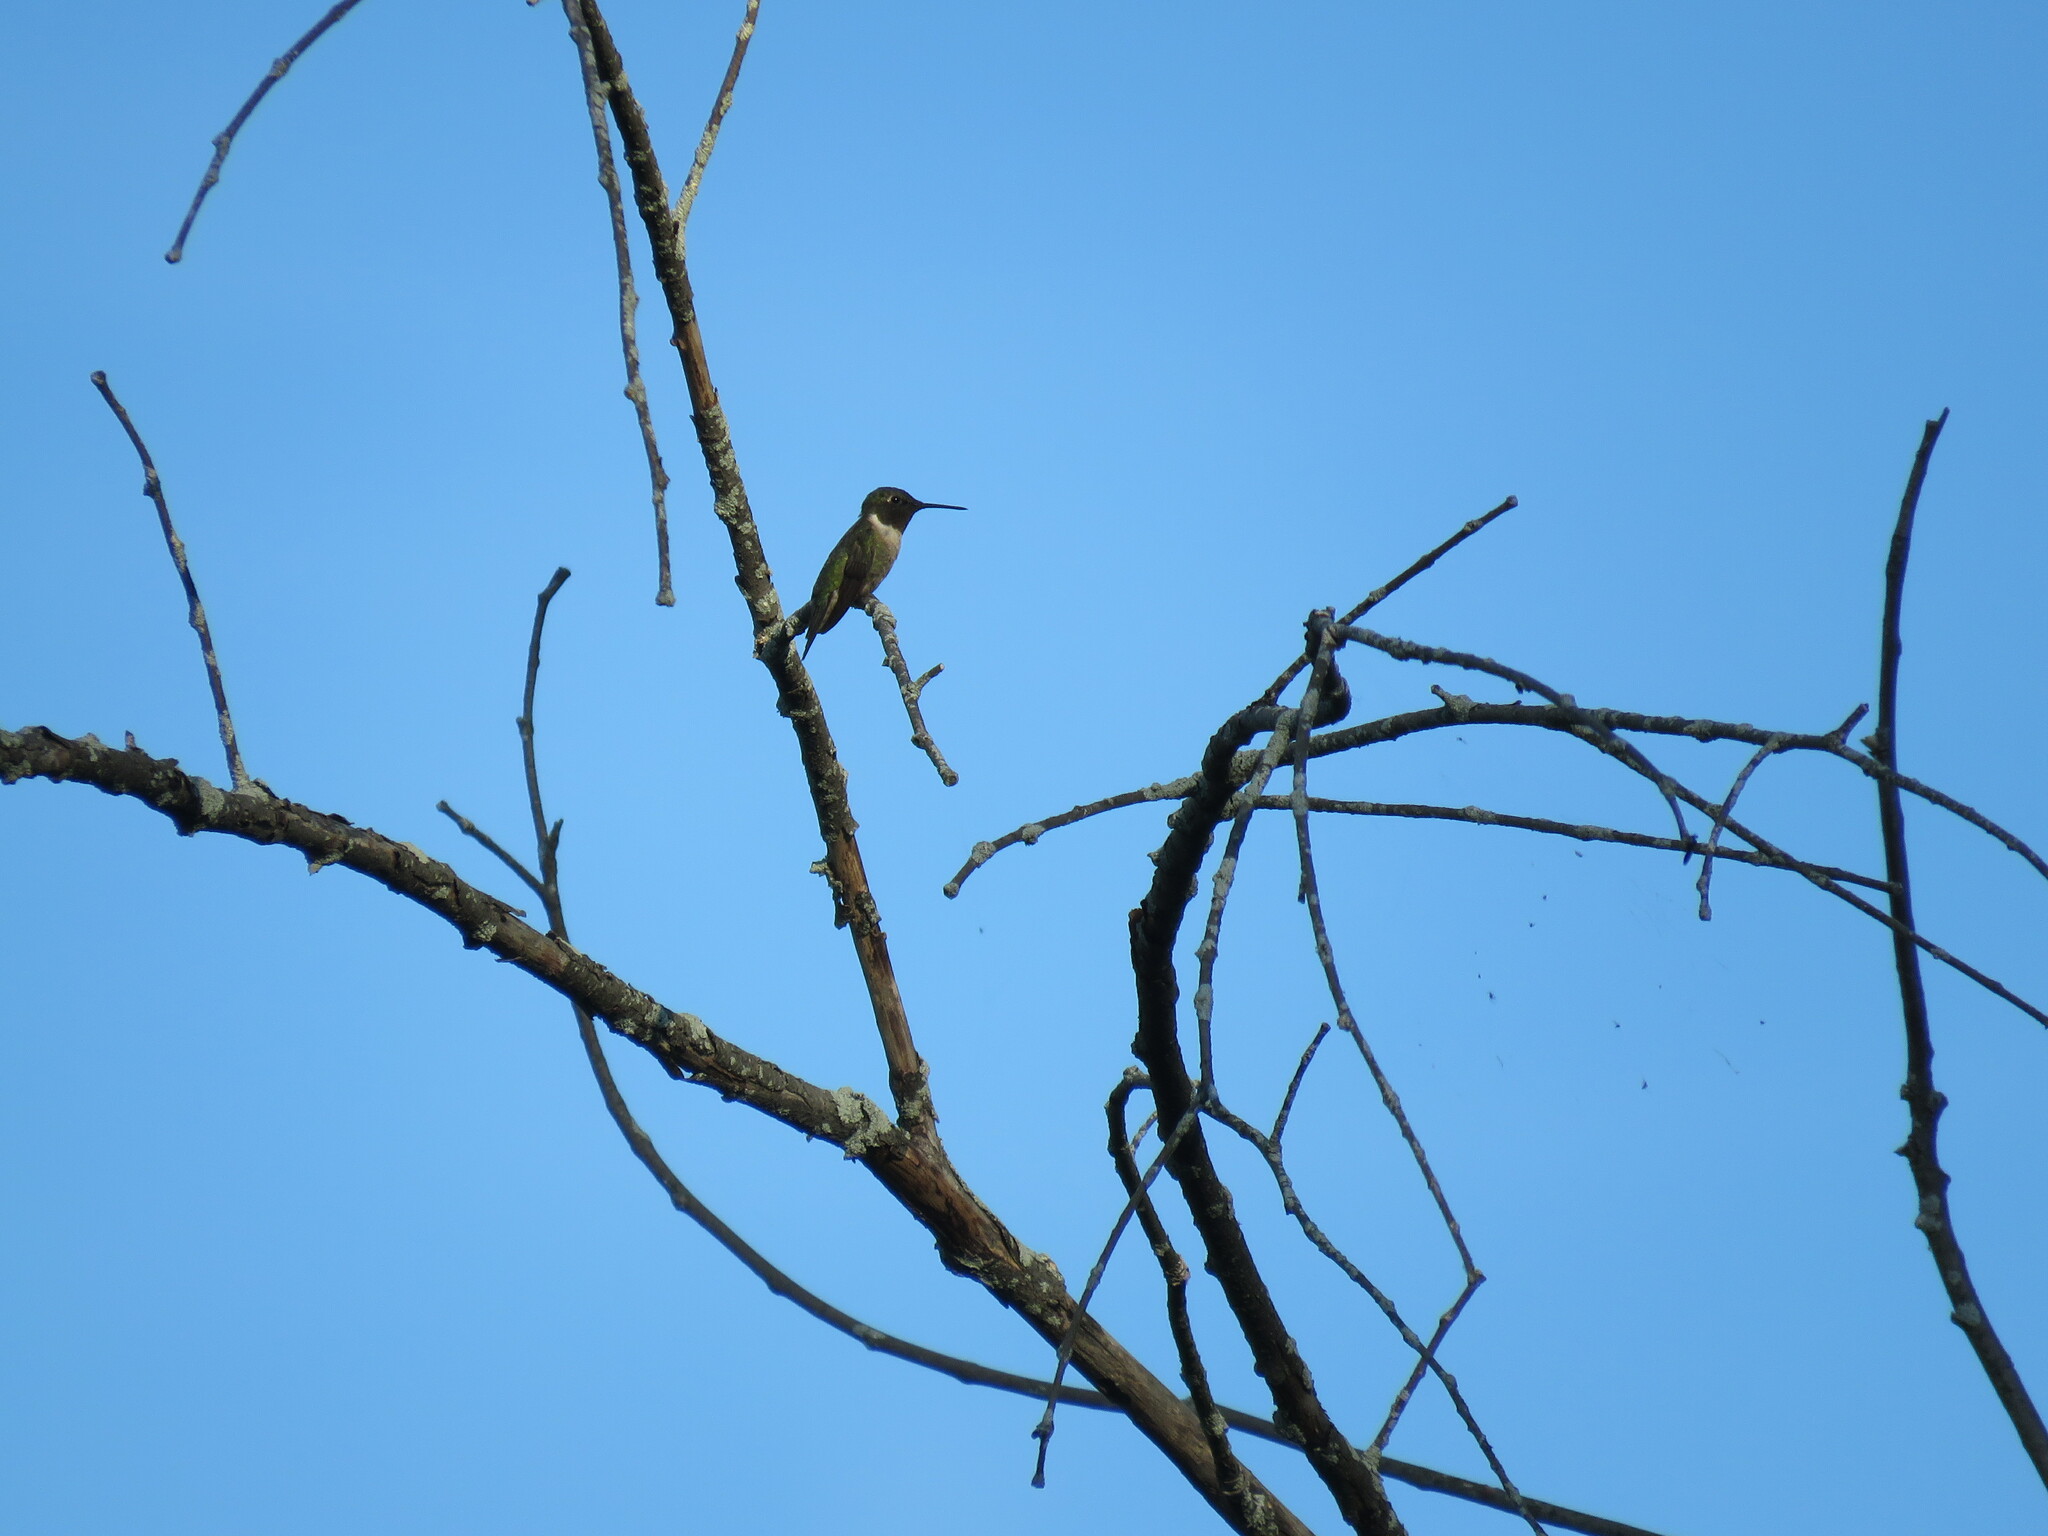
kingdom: Animalia
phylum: Chordata
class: Aves
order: Apodiformes
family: Trochilidae
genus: Archilochus
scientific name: Archilochus colubris
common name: Ruby-throated hummingbird
